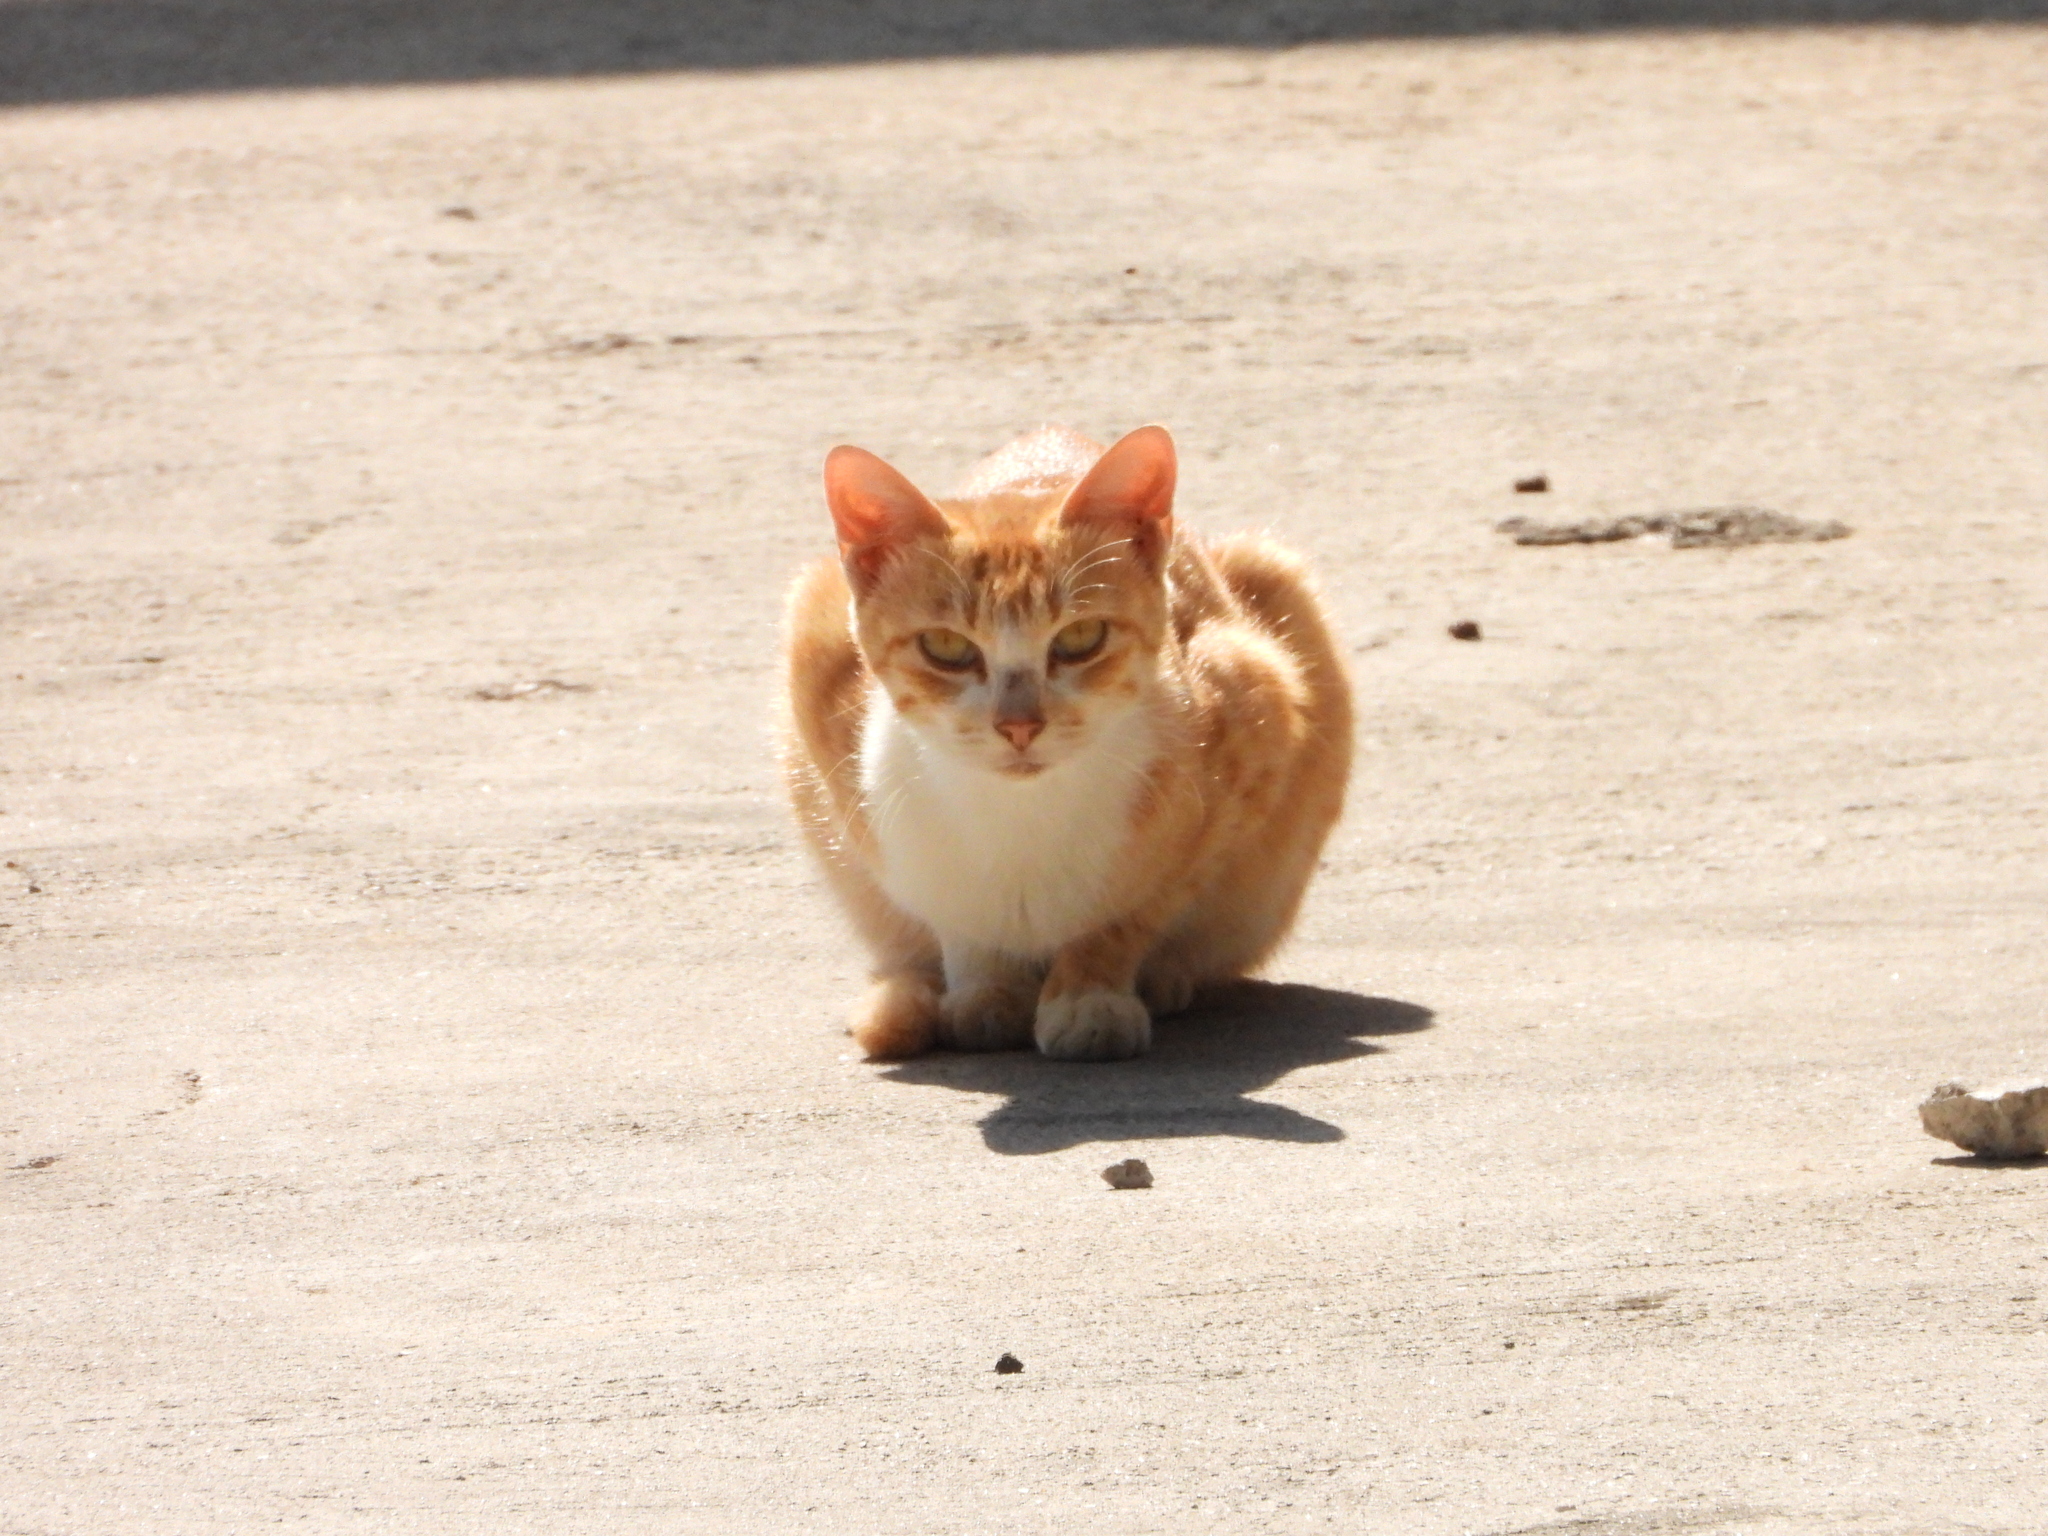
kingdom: Animalia
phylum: Chordata
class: Mammalia
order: Carnivora
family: Felidae
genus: Felis
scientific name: Felis catus
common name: Domestic cat
